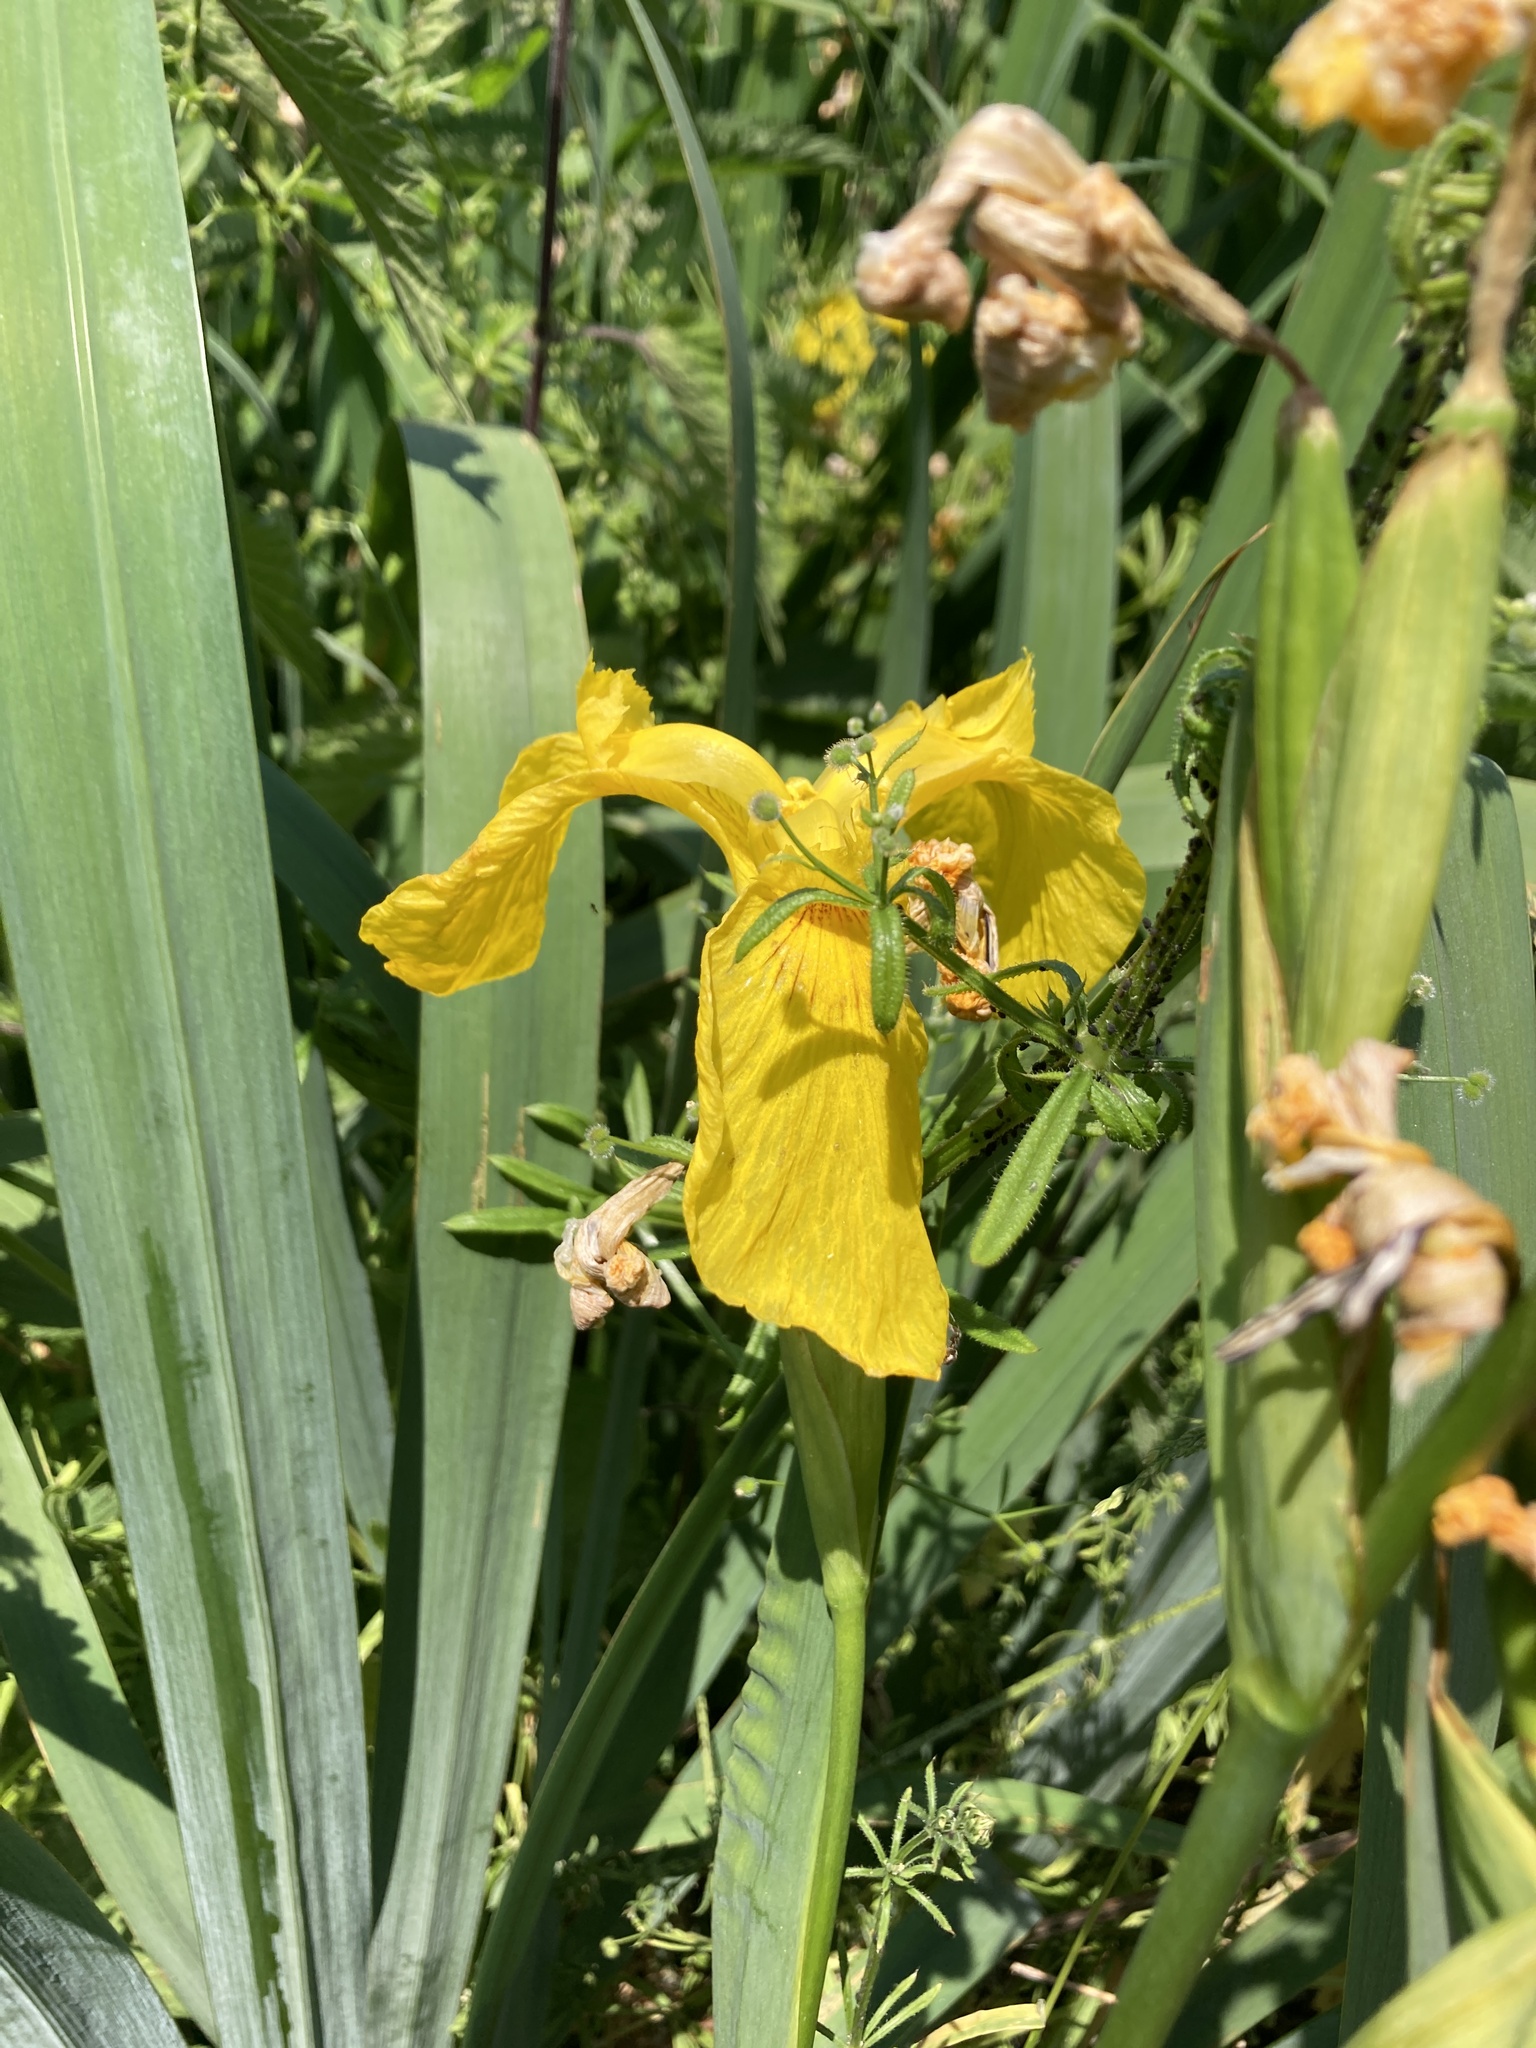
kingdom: Plantae
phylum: Tracheophyta
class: Liliopsida
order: Asparagales
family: Iridaceae
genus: Iris
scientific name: Iris pseudacorus
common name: Yellow flag
